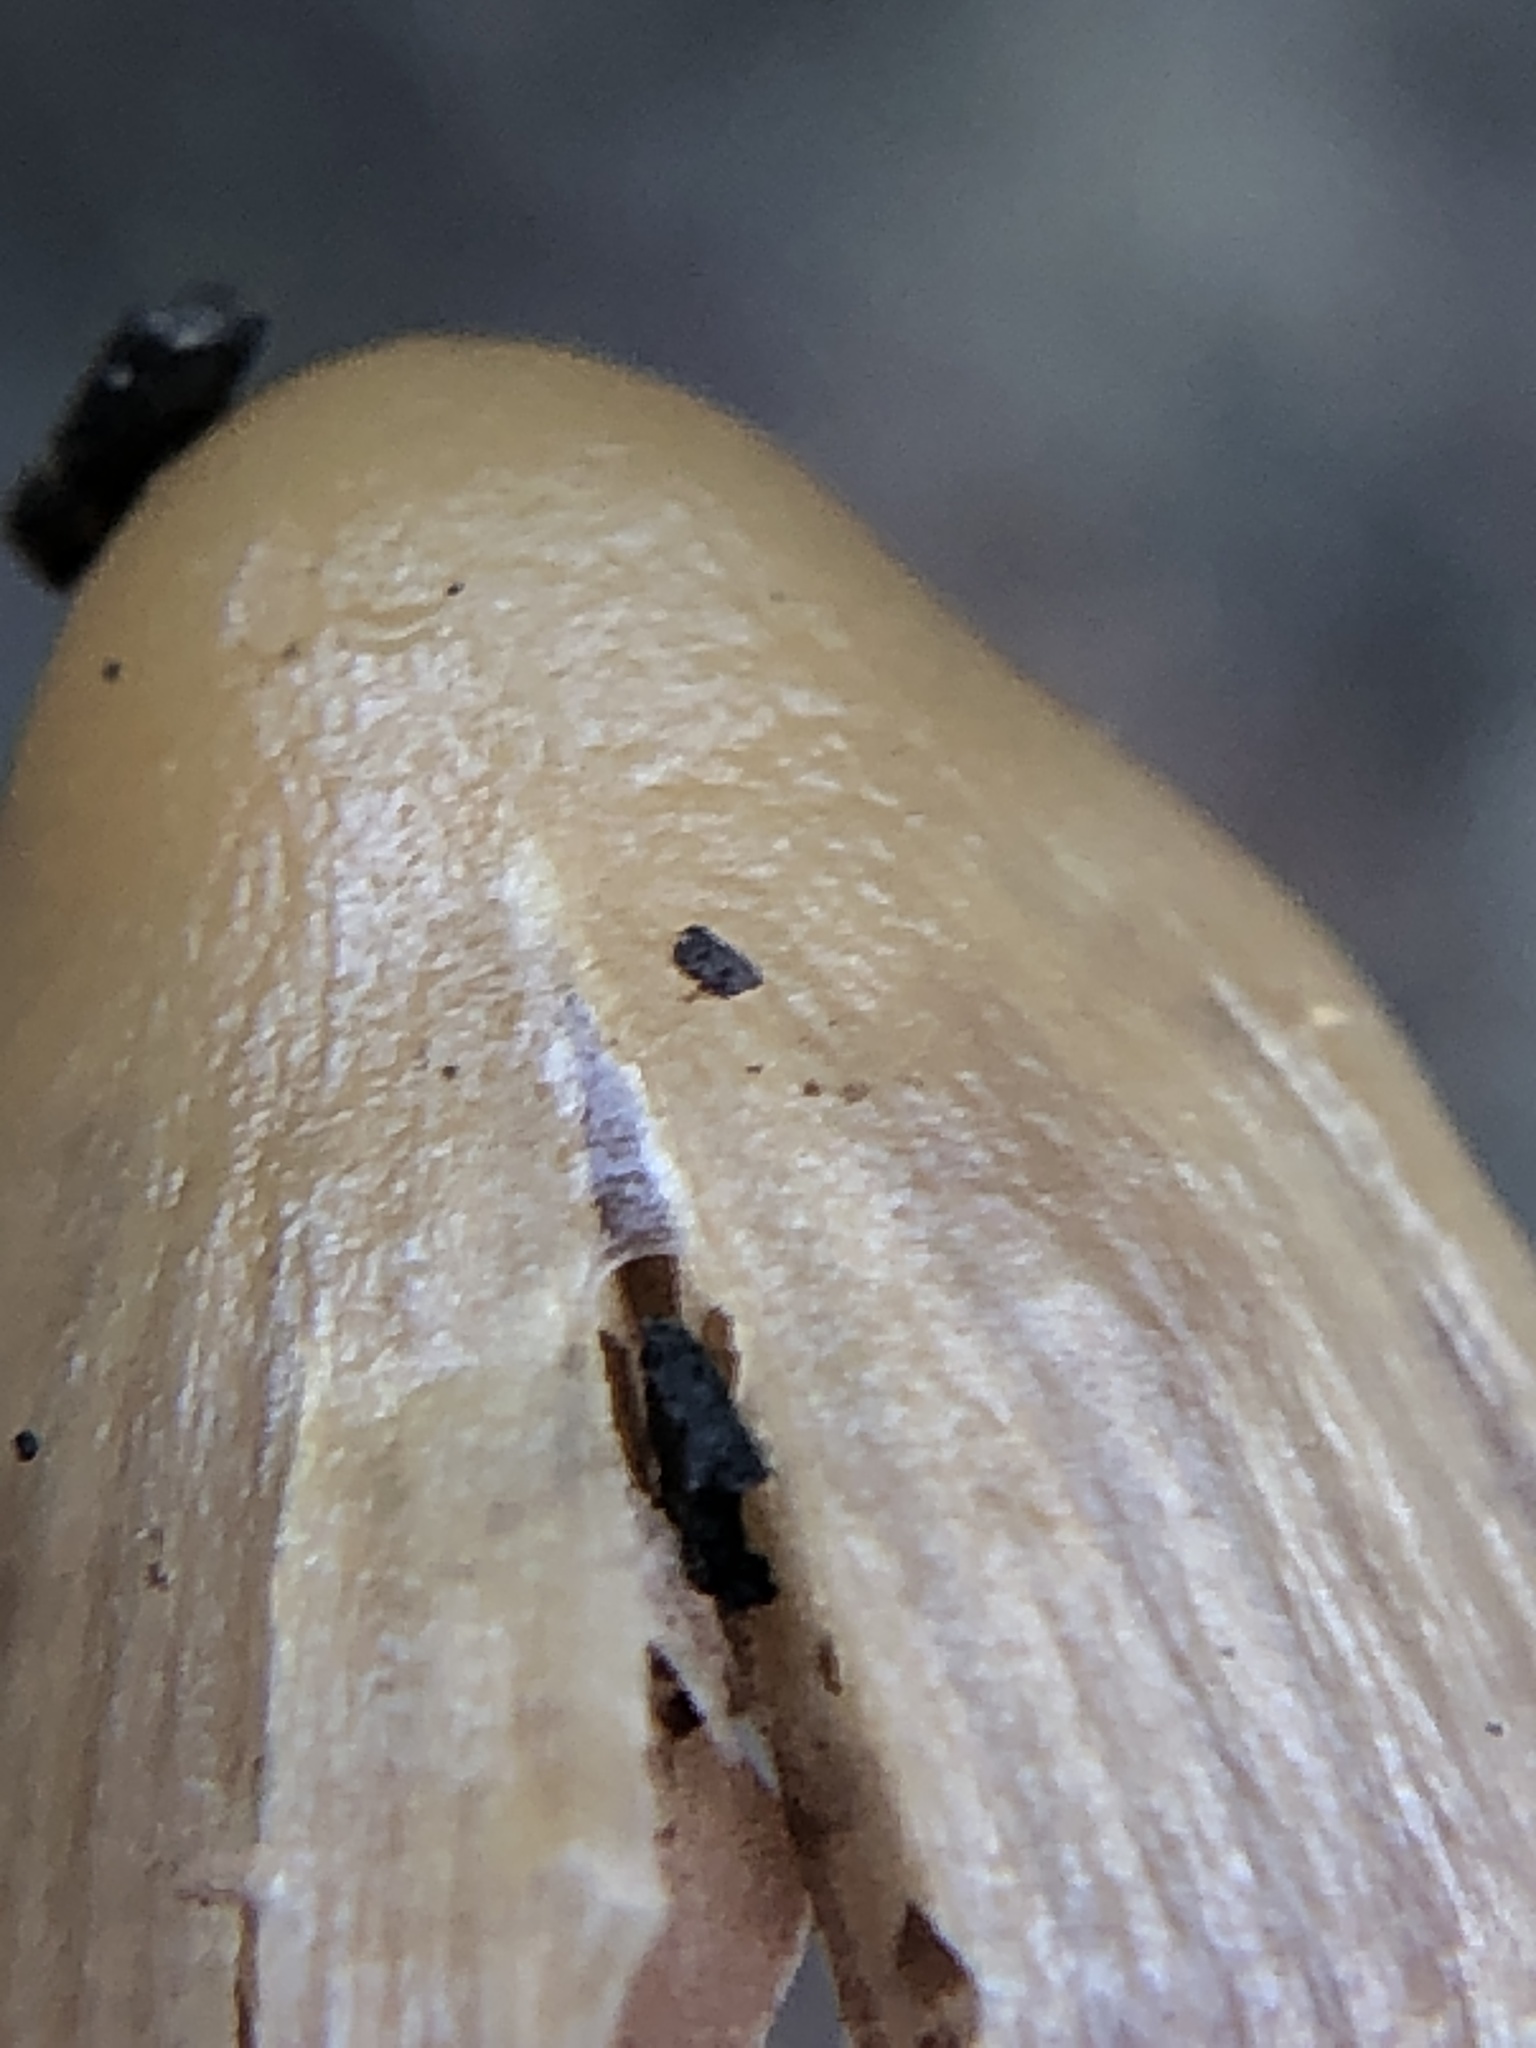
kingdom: Fungi
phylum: Basidiomycota
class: Agaricomycetes
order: Agaricales
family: Hymenogastraceae
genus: Psilocybe
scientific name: Psilocybe pelliculosa
